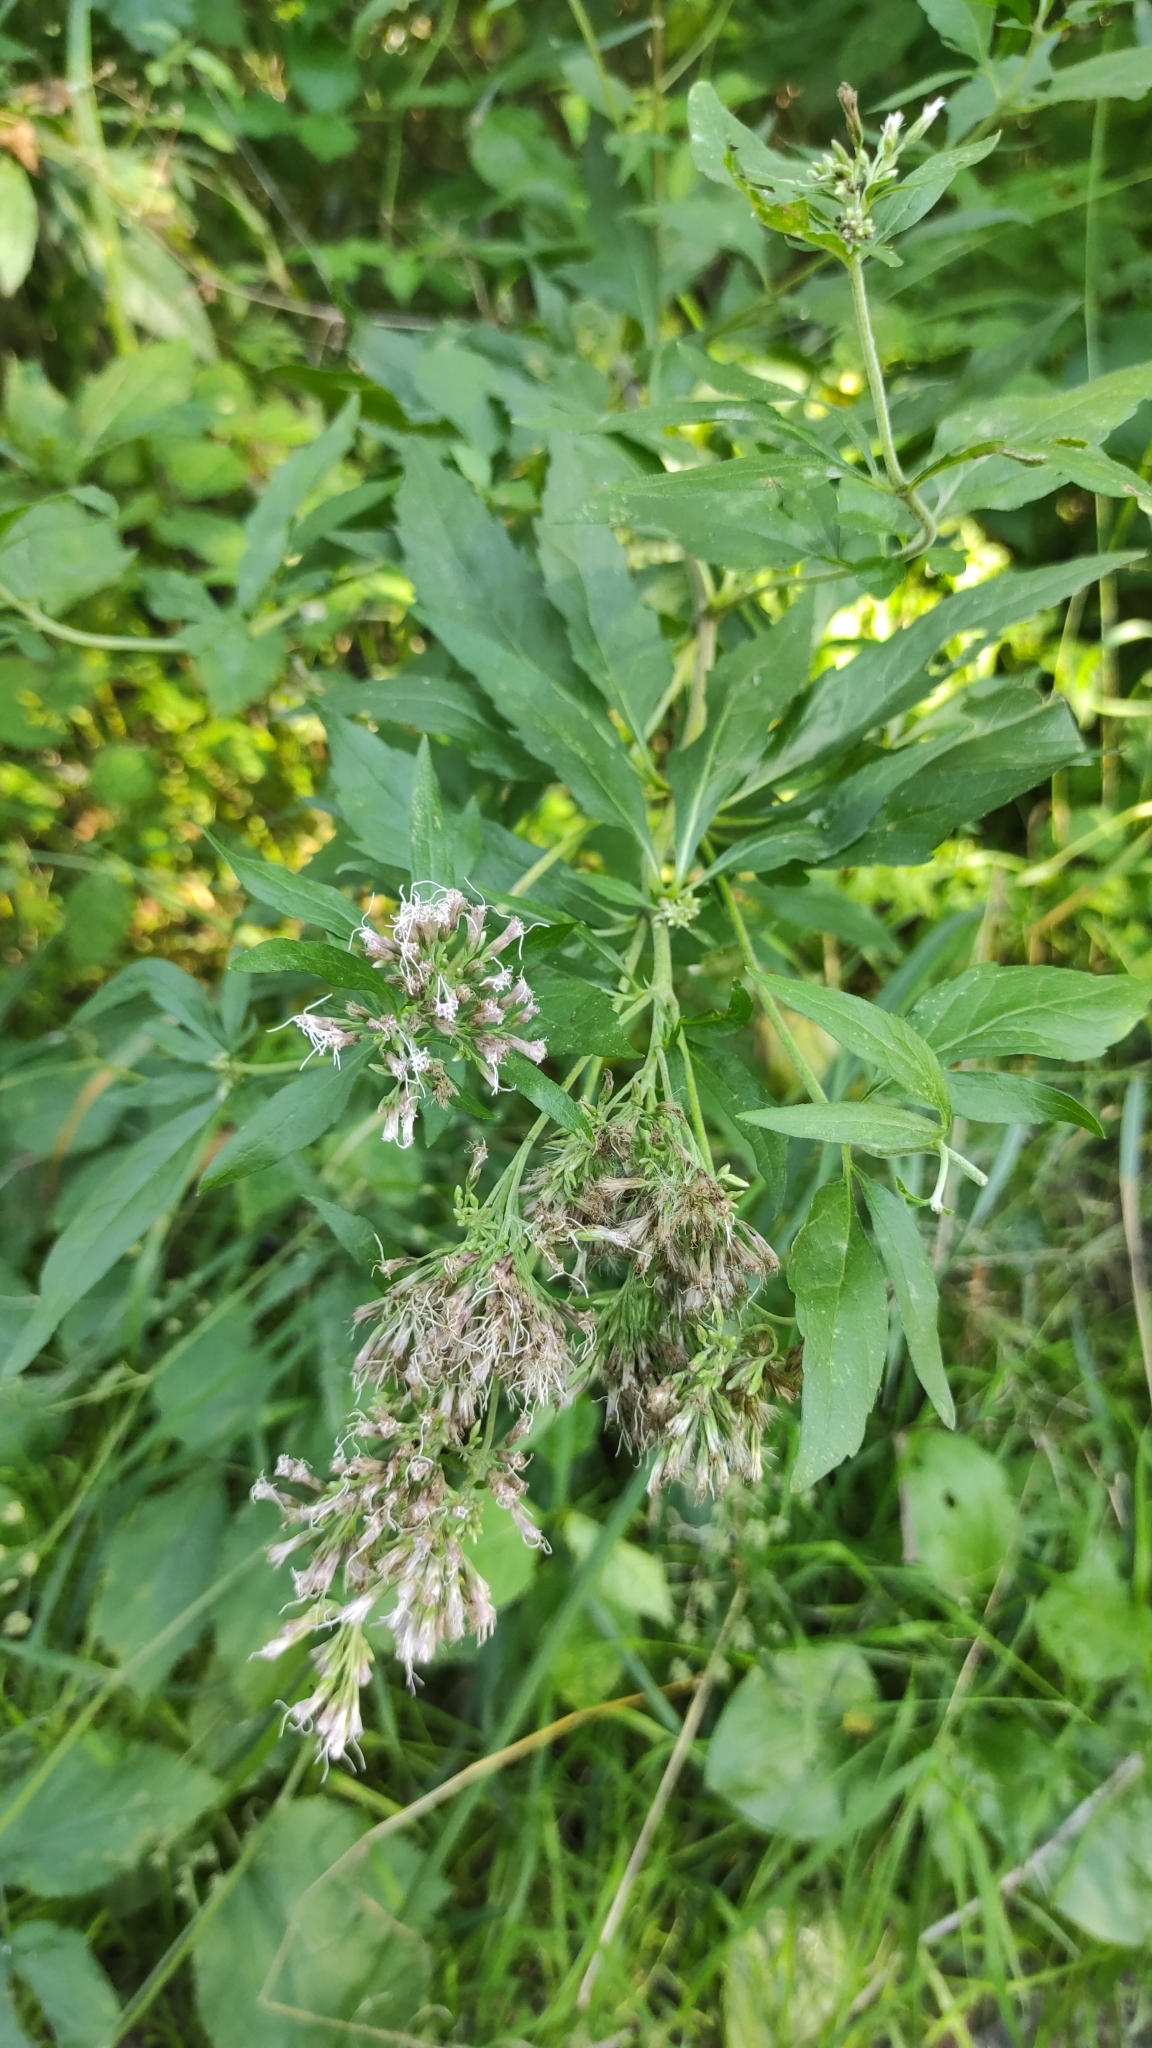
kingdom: Plantae
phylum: Tracheophyta
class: Magnoliopsida
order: Asterales
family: Asteraceae
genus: Eupatorium
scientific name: Eupatorium cannabinum
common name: Hemp-agrimony
